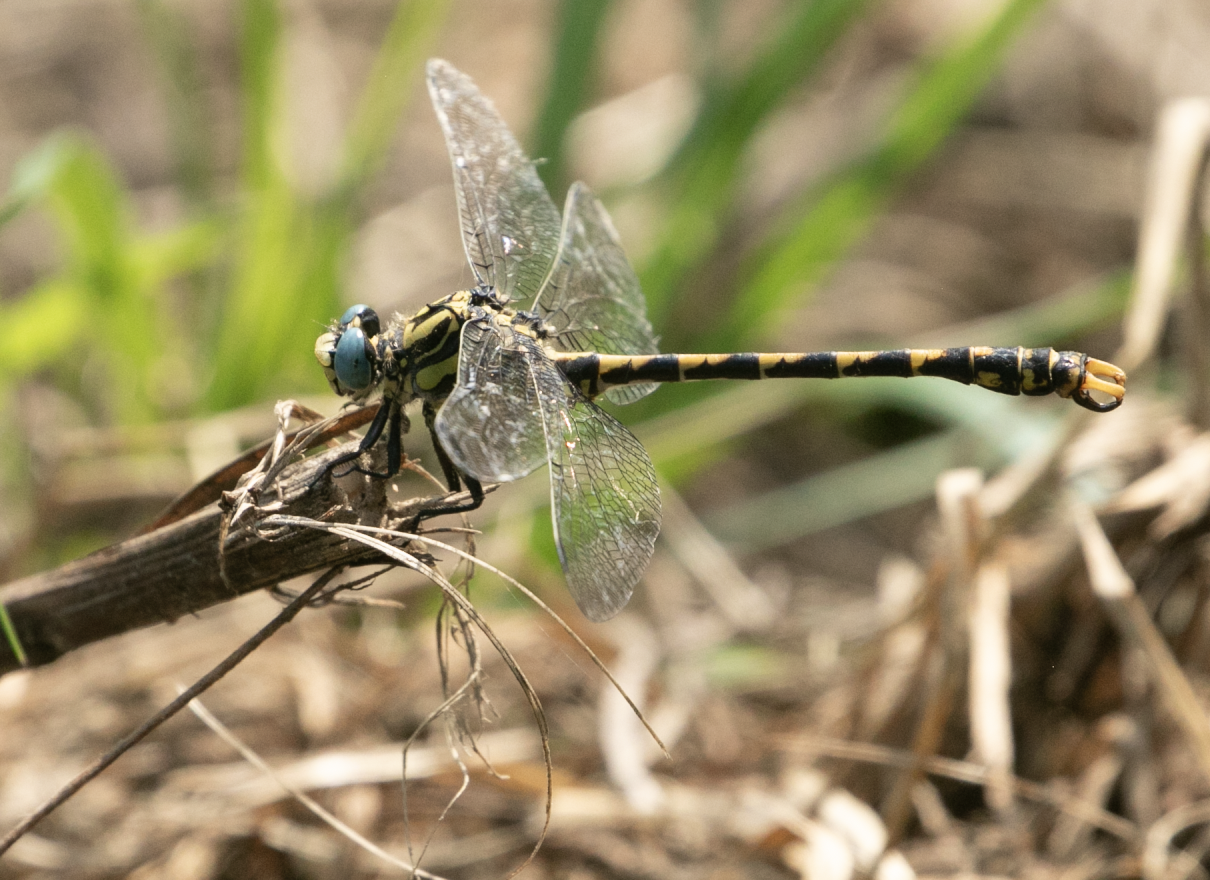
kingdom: Animalia
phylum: Arthropoda
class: Insecta
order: Odonata
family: Gomphidae
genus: Onychogomphus
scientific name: Onychogomphus uncatus
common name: Large pincertail
